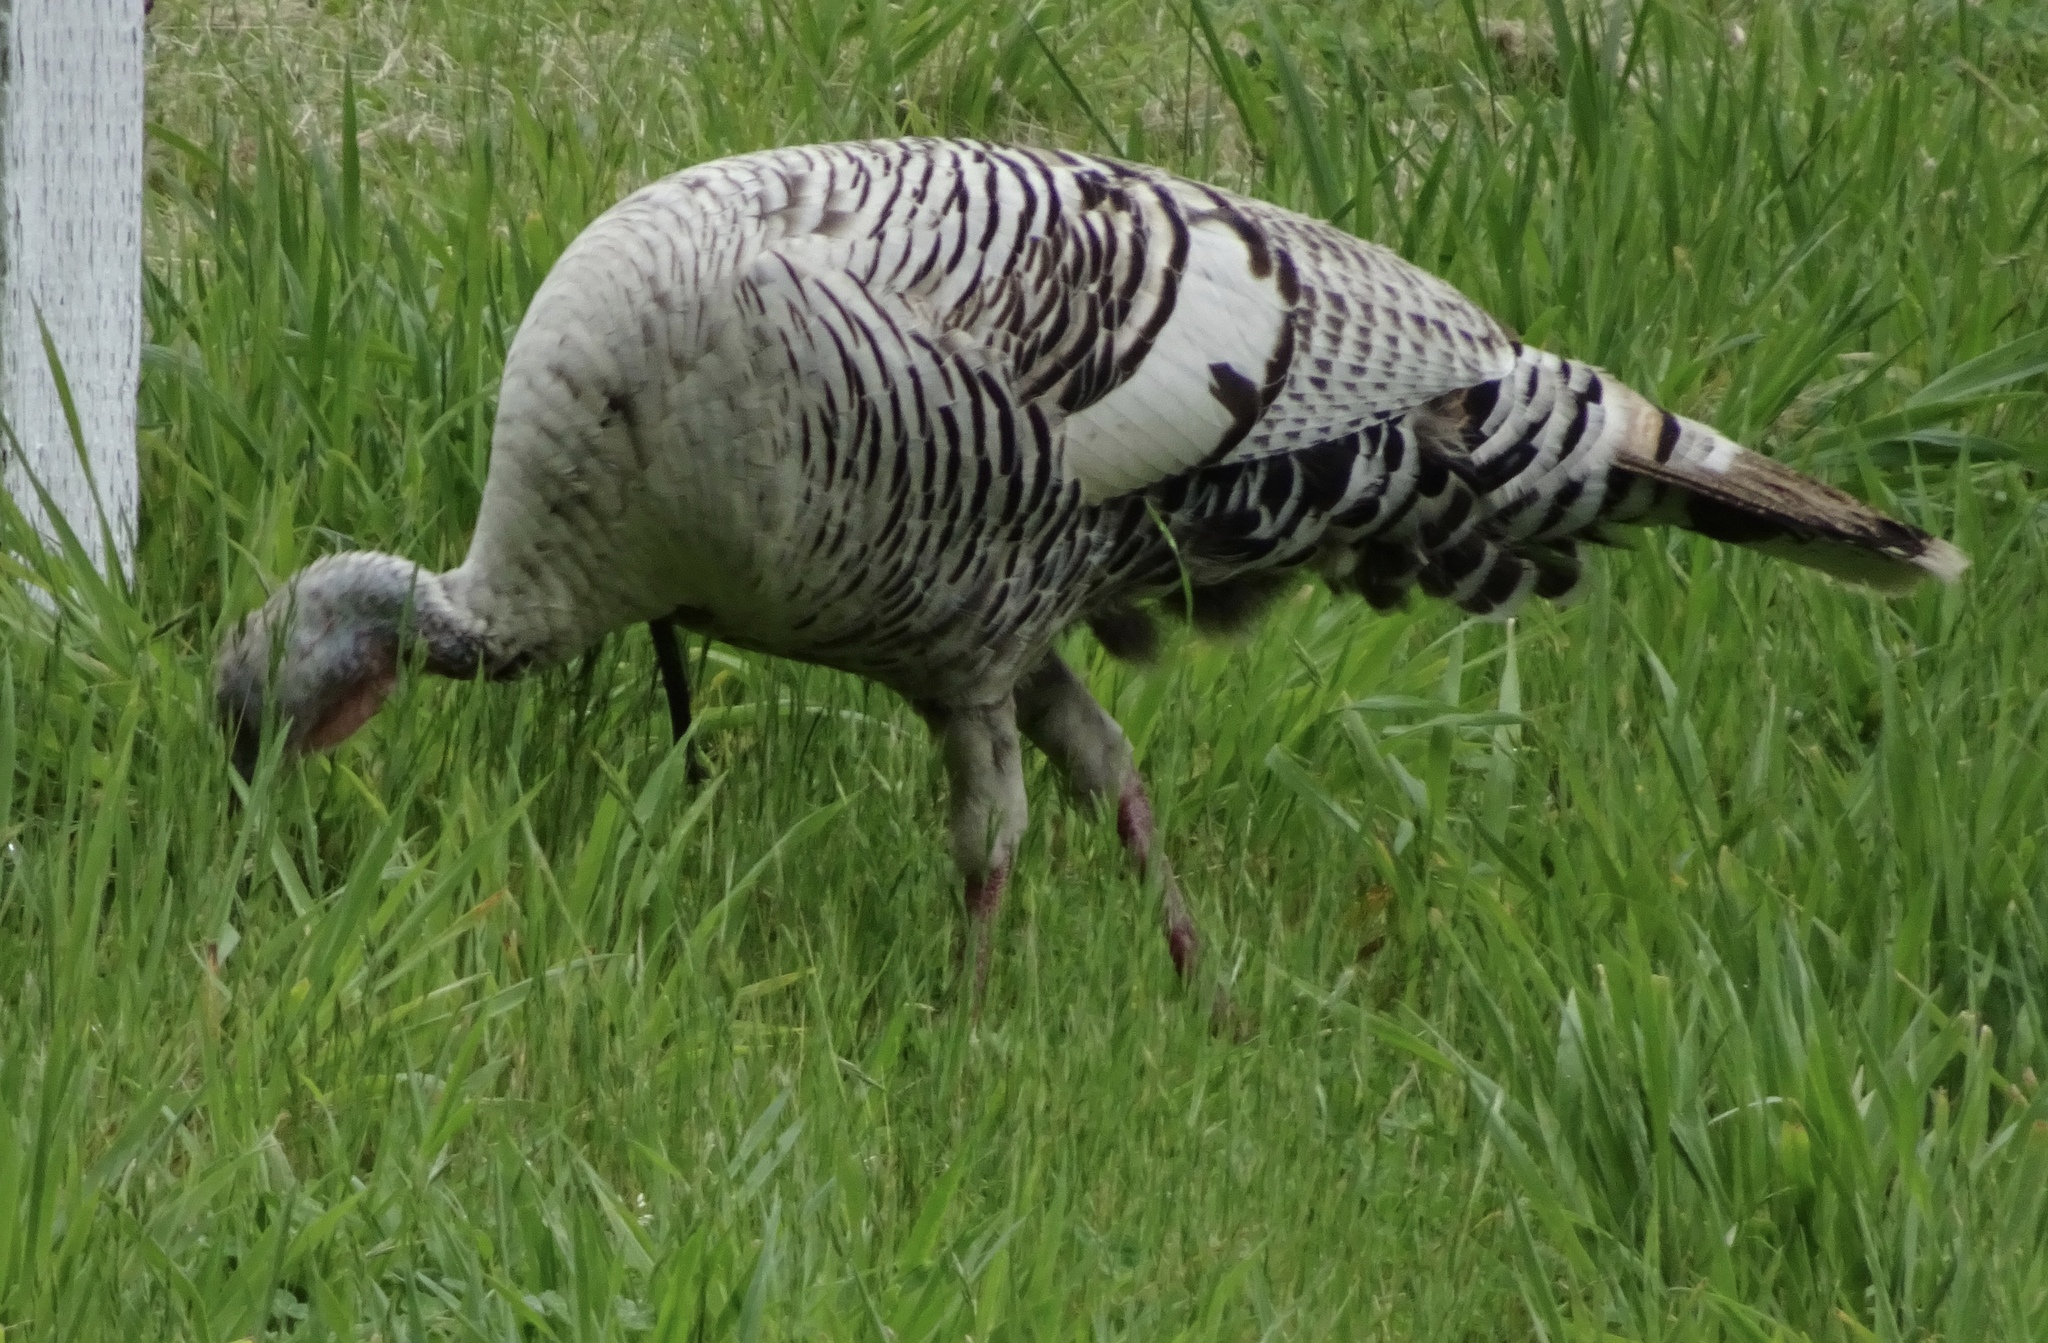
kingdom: Animalia
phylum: Chordata
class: Aves
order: Galliformes
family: Phasianidae
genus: Meleagris
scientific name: Meleagris gallopavo
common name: Wild turkey
